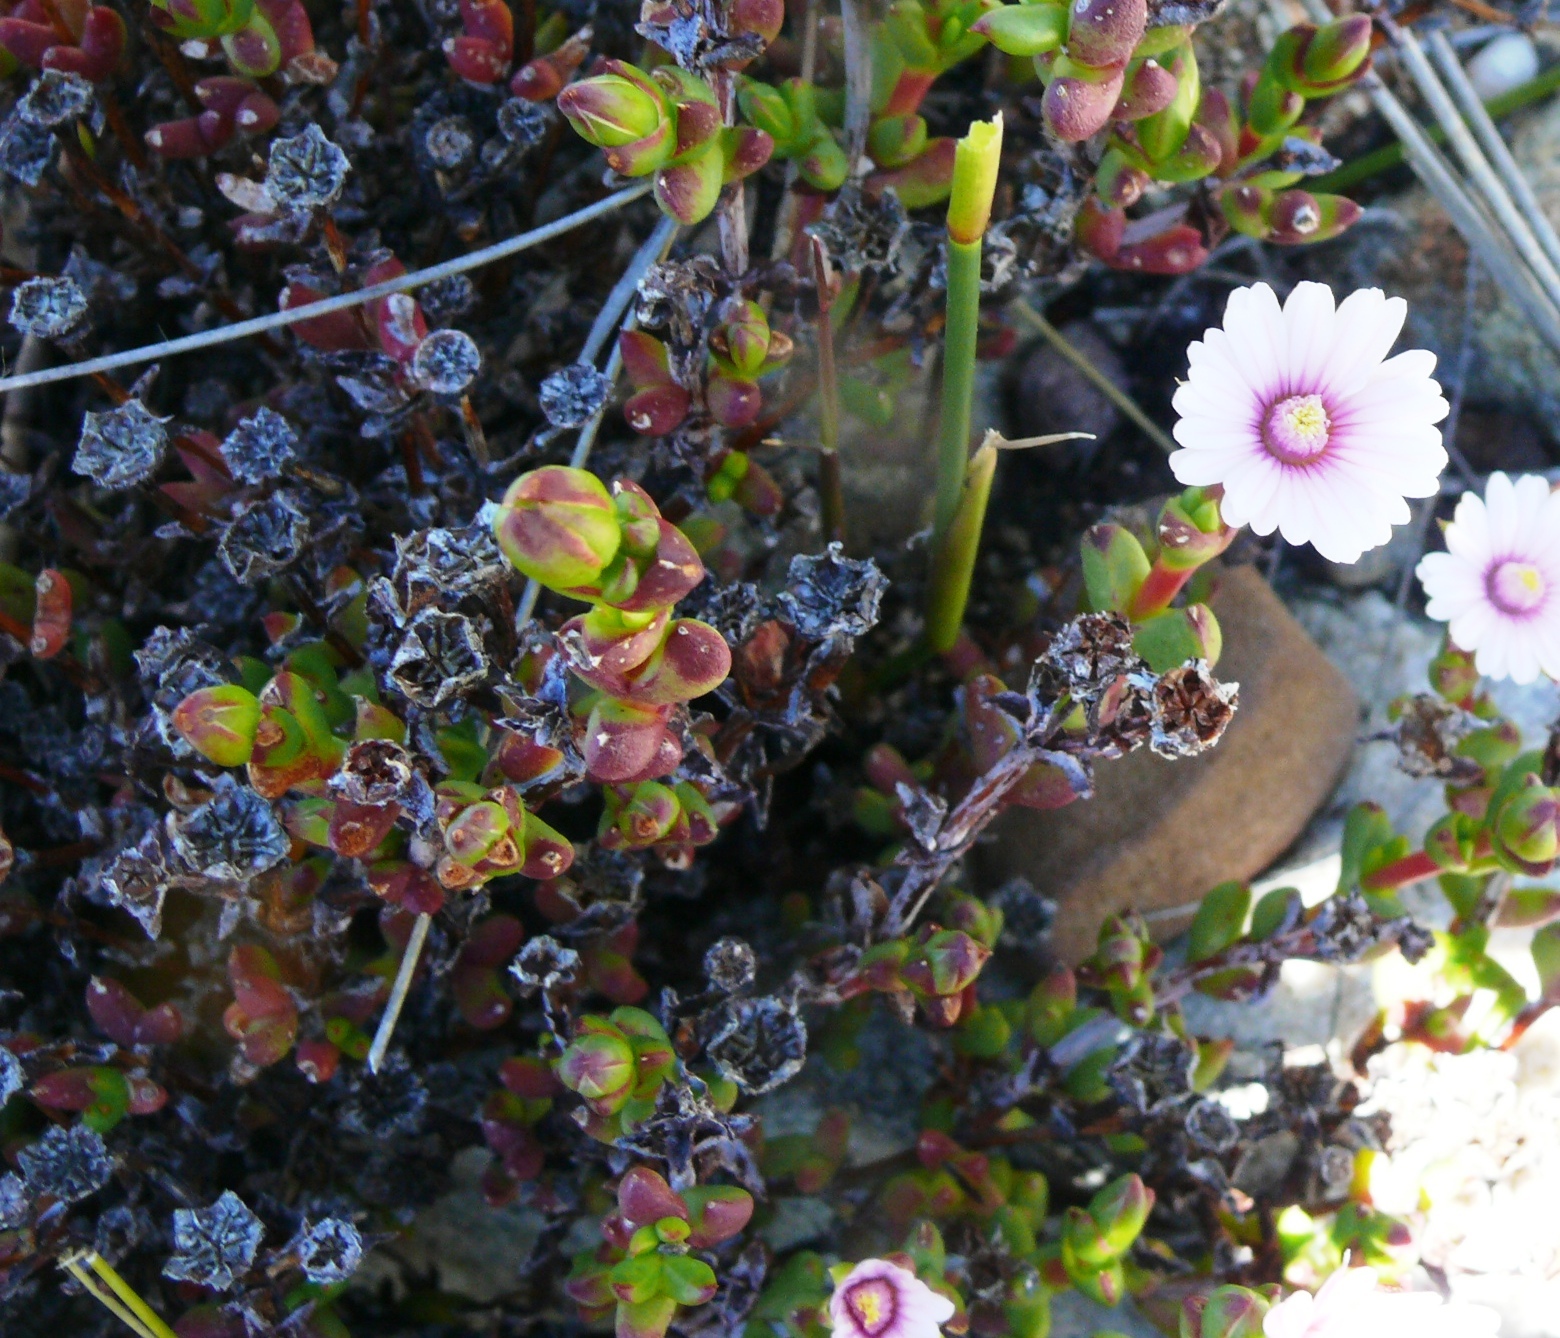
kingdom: Plantae
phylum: Tracheophyta
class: Magnoliopsida
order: Caryophyllales
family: Aizoaceae
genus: Esterhuysenia
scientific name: Esterhuysenia drepanophylla
